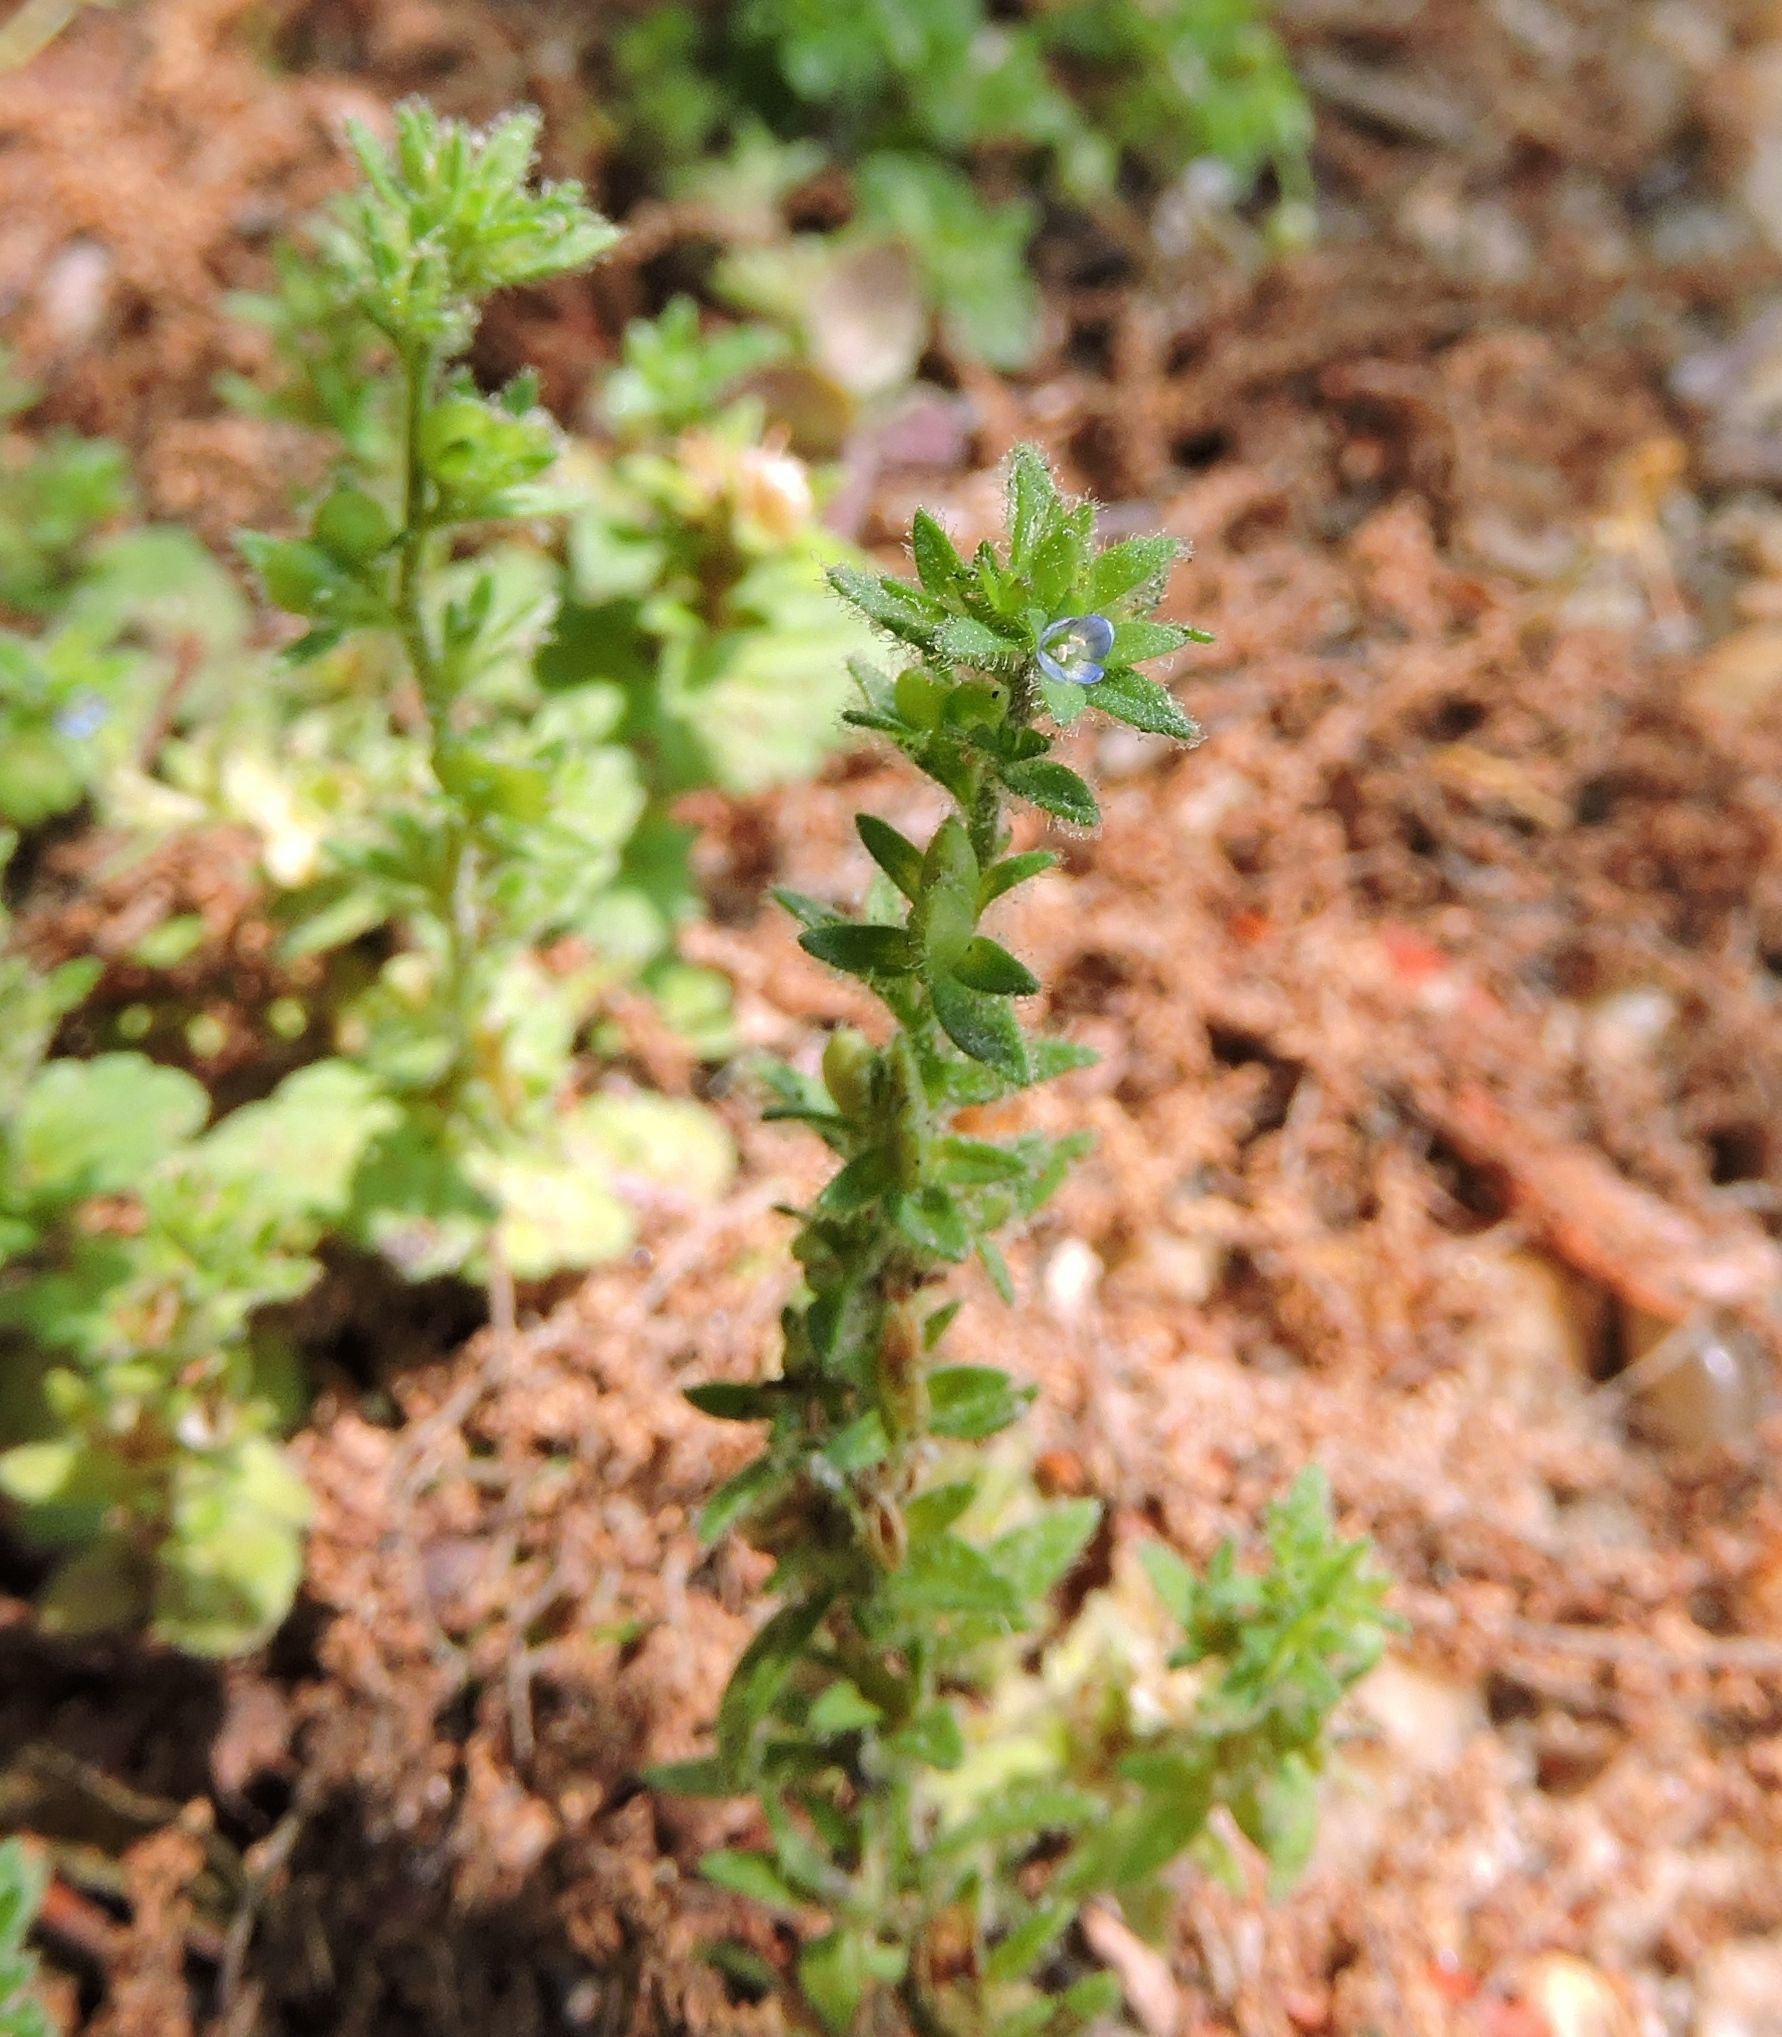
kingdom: Plantae
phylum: Tracheophyta
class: Magnoliopsida
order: Lamiales
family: Plantaginaceae
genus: Veronica
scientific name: Veronica arvensis
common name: Corn speedwell
